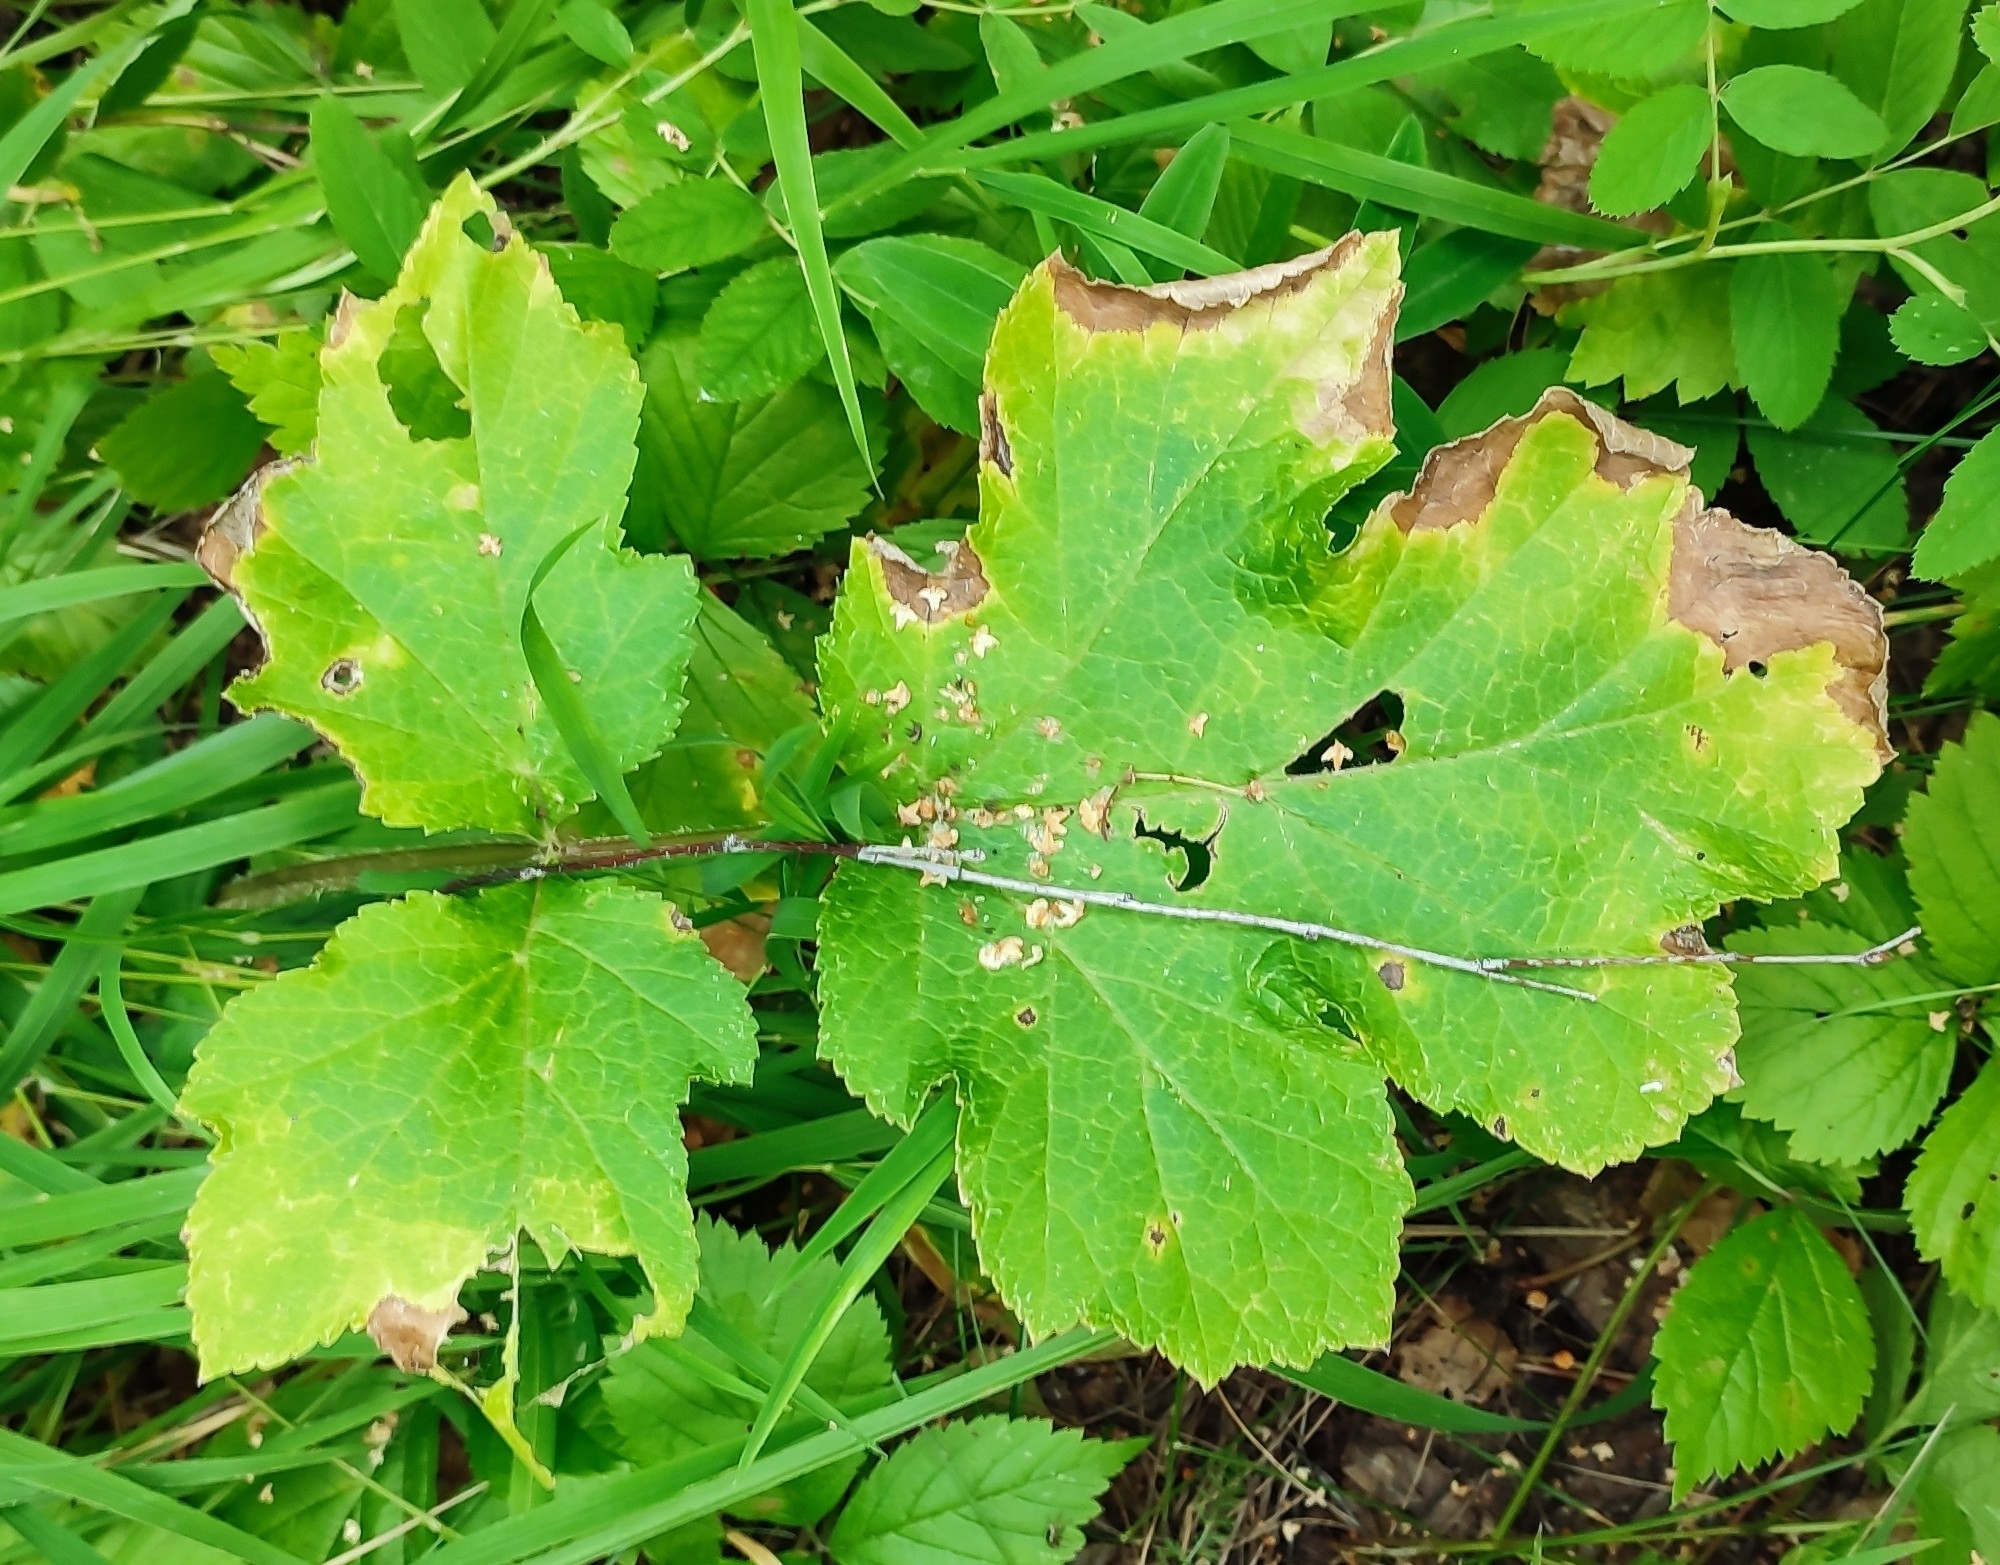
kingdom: Plantae
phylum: Tracheophyta
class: Magnoliopsida
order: Apiales
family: Apiaceae
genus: Heracleum
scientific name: Heracleum sphondylium
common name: Hogweed
